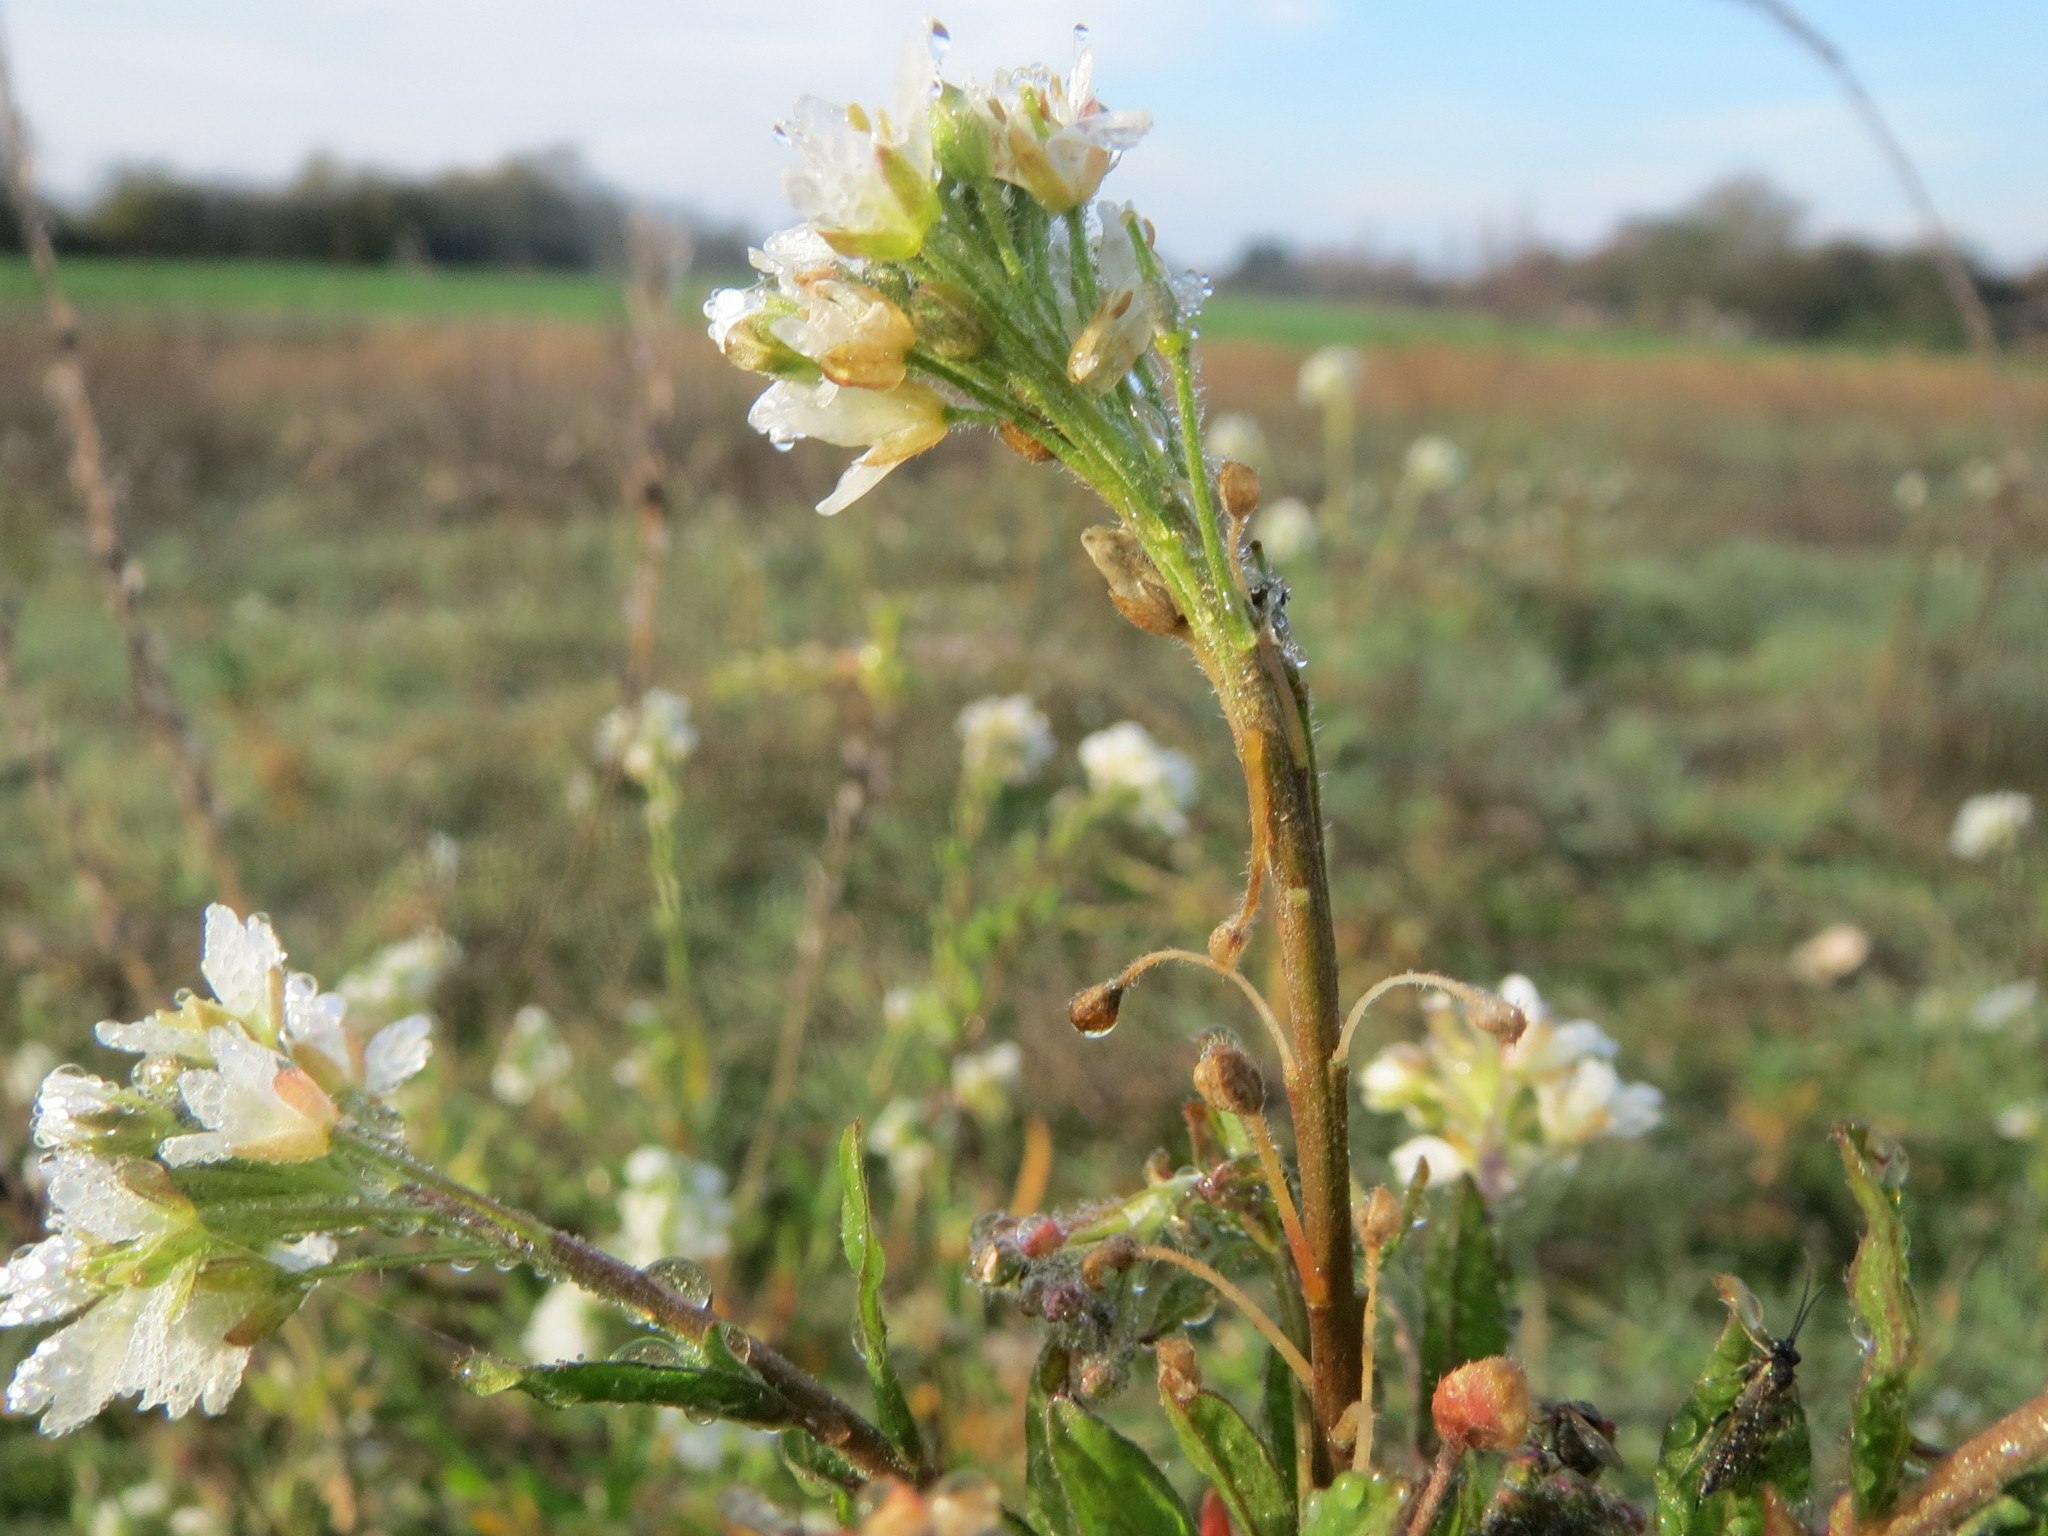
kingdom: Plantae
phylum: Tracheophyta
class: Magnoliopsida
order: Brassicales
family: Brassicaceae
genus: Berteroa
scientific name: Berteroa incana
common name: Hoary alison
